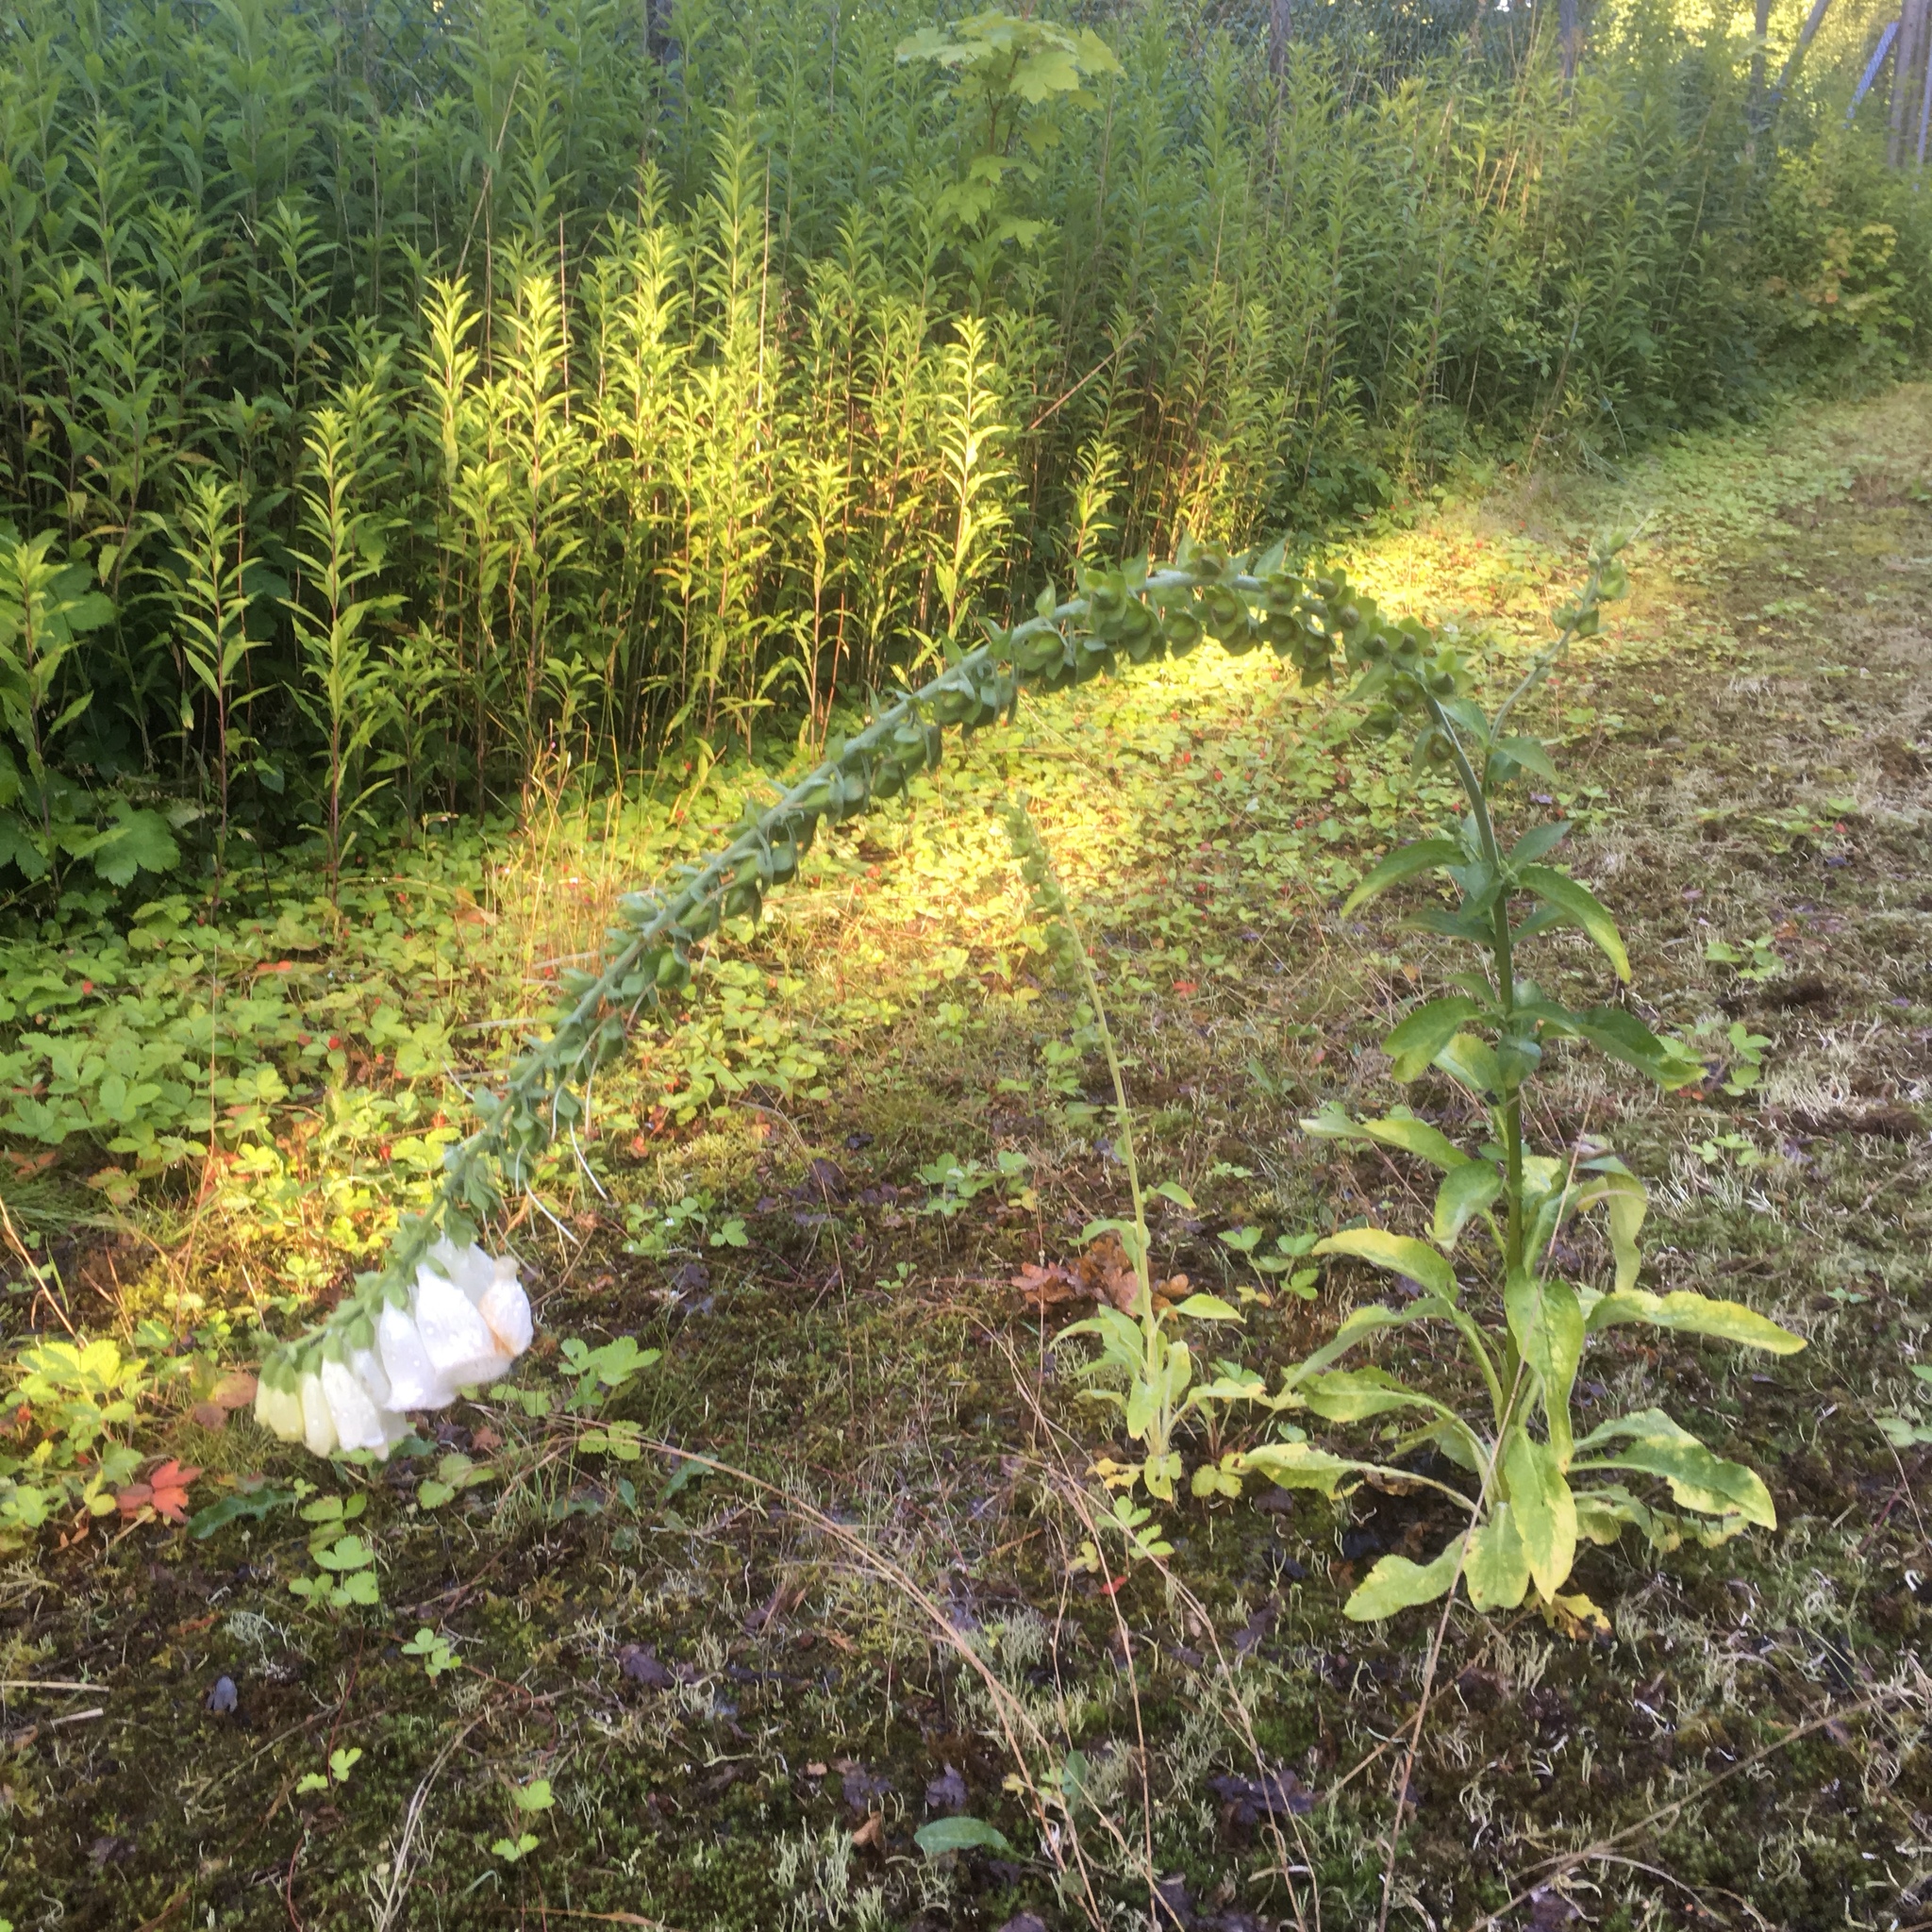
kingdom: Plantae
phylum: Tracheophyta
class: Magnoliopsida
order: Lamiales
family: Plantaginaceae
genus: Digitalis
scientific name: Digitalis purpurea
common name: Foxglove
